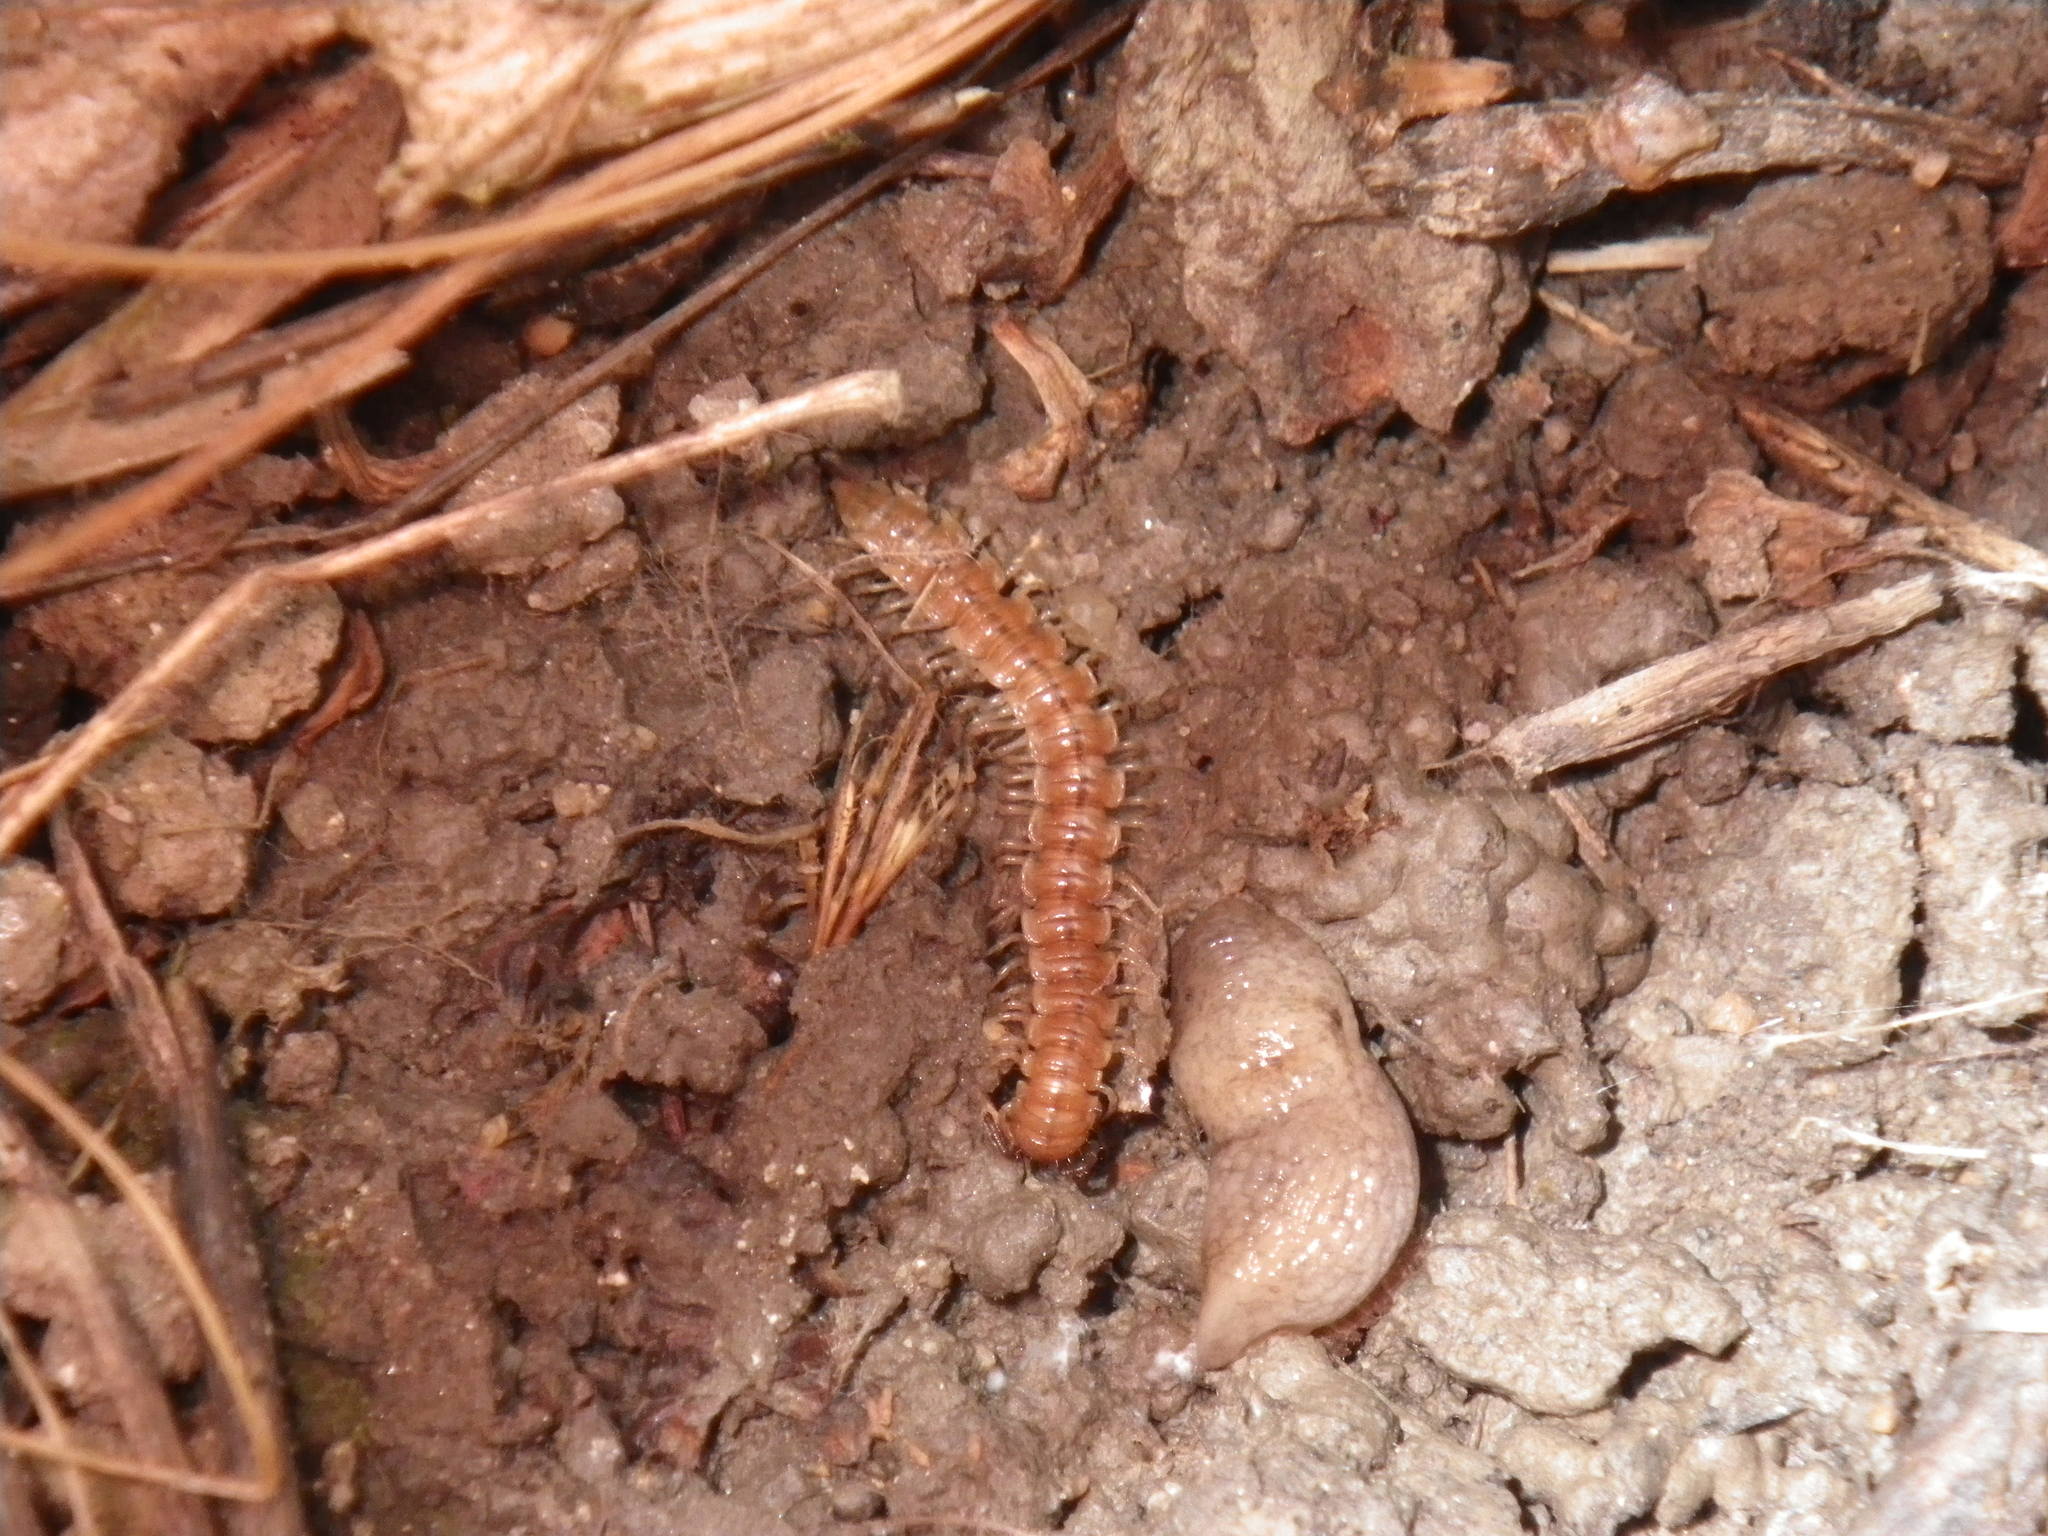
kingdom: Animalia
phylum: Arthropoda
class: Diplopoda
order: Polydesmida
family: Paradoxosomatidae
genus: Oxidus
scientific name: Oxidus gracilis
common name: Greenhouse millipede
